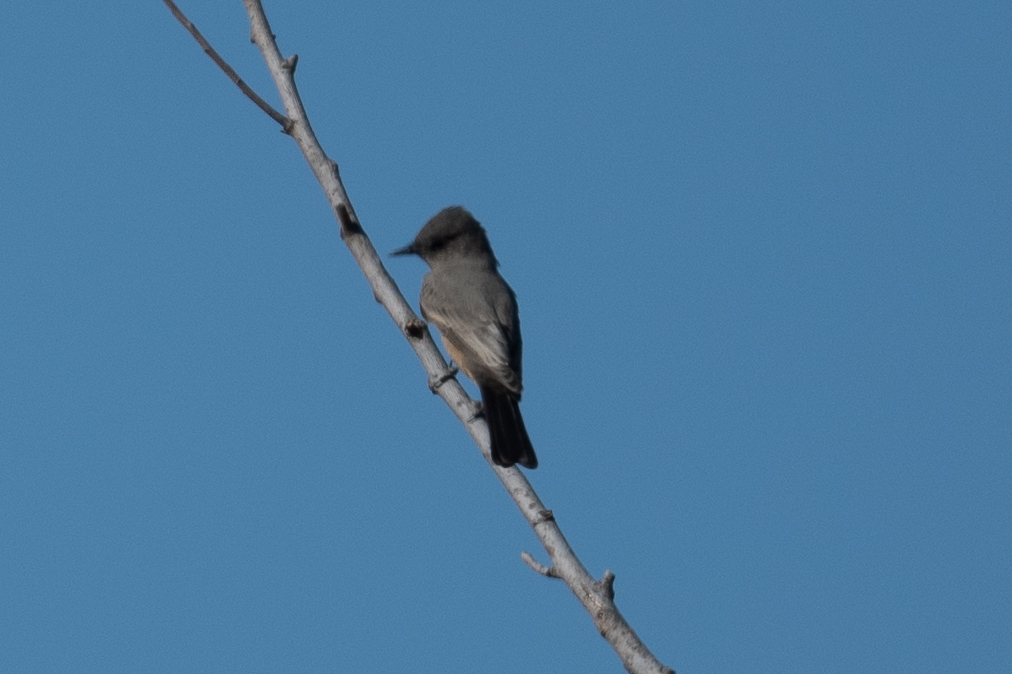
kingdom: Animalia
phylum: Chordata
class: Aves
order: Passeriformes
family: Tyrannidae
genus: Sayornis
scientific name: Sayornis saya
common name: Say's phoebe
